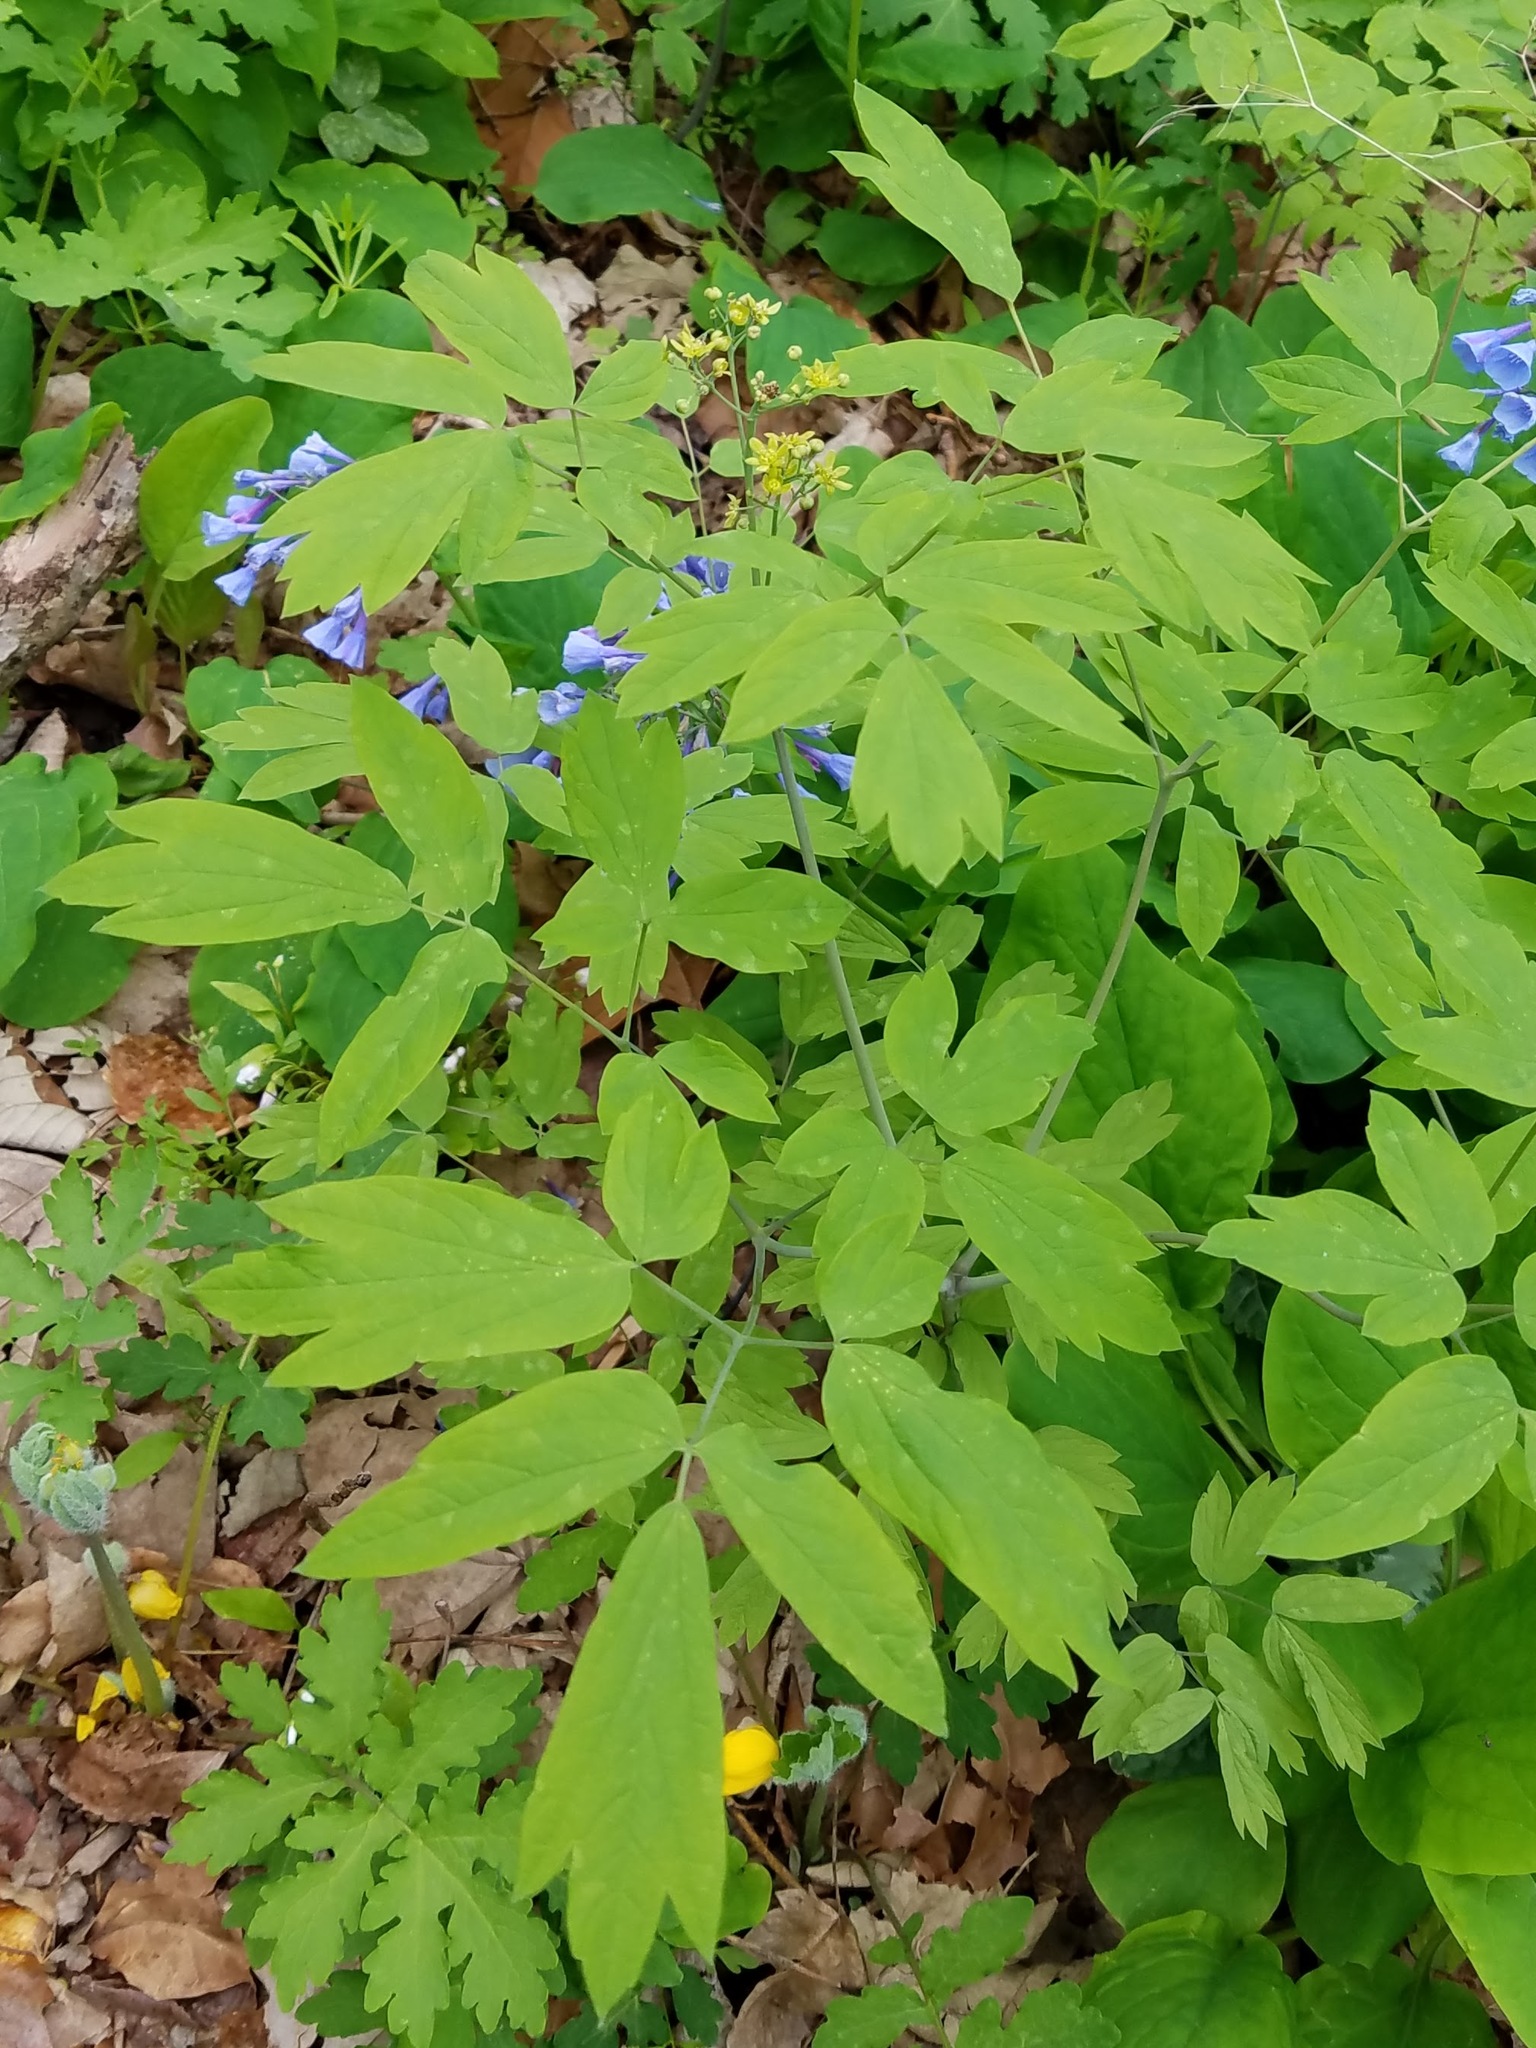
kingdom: Plantae
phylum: Tracheophyta
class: Magnoliopsida
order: Ranunculales
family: Berberidaceae
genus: Caulophyllum
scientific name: Caulophyllum thalictroides
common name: Blue cohosh
